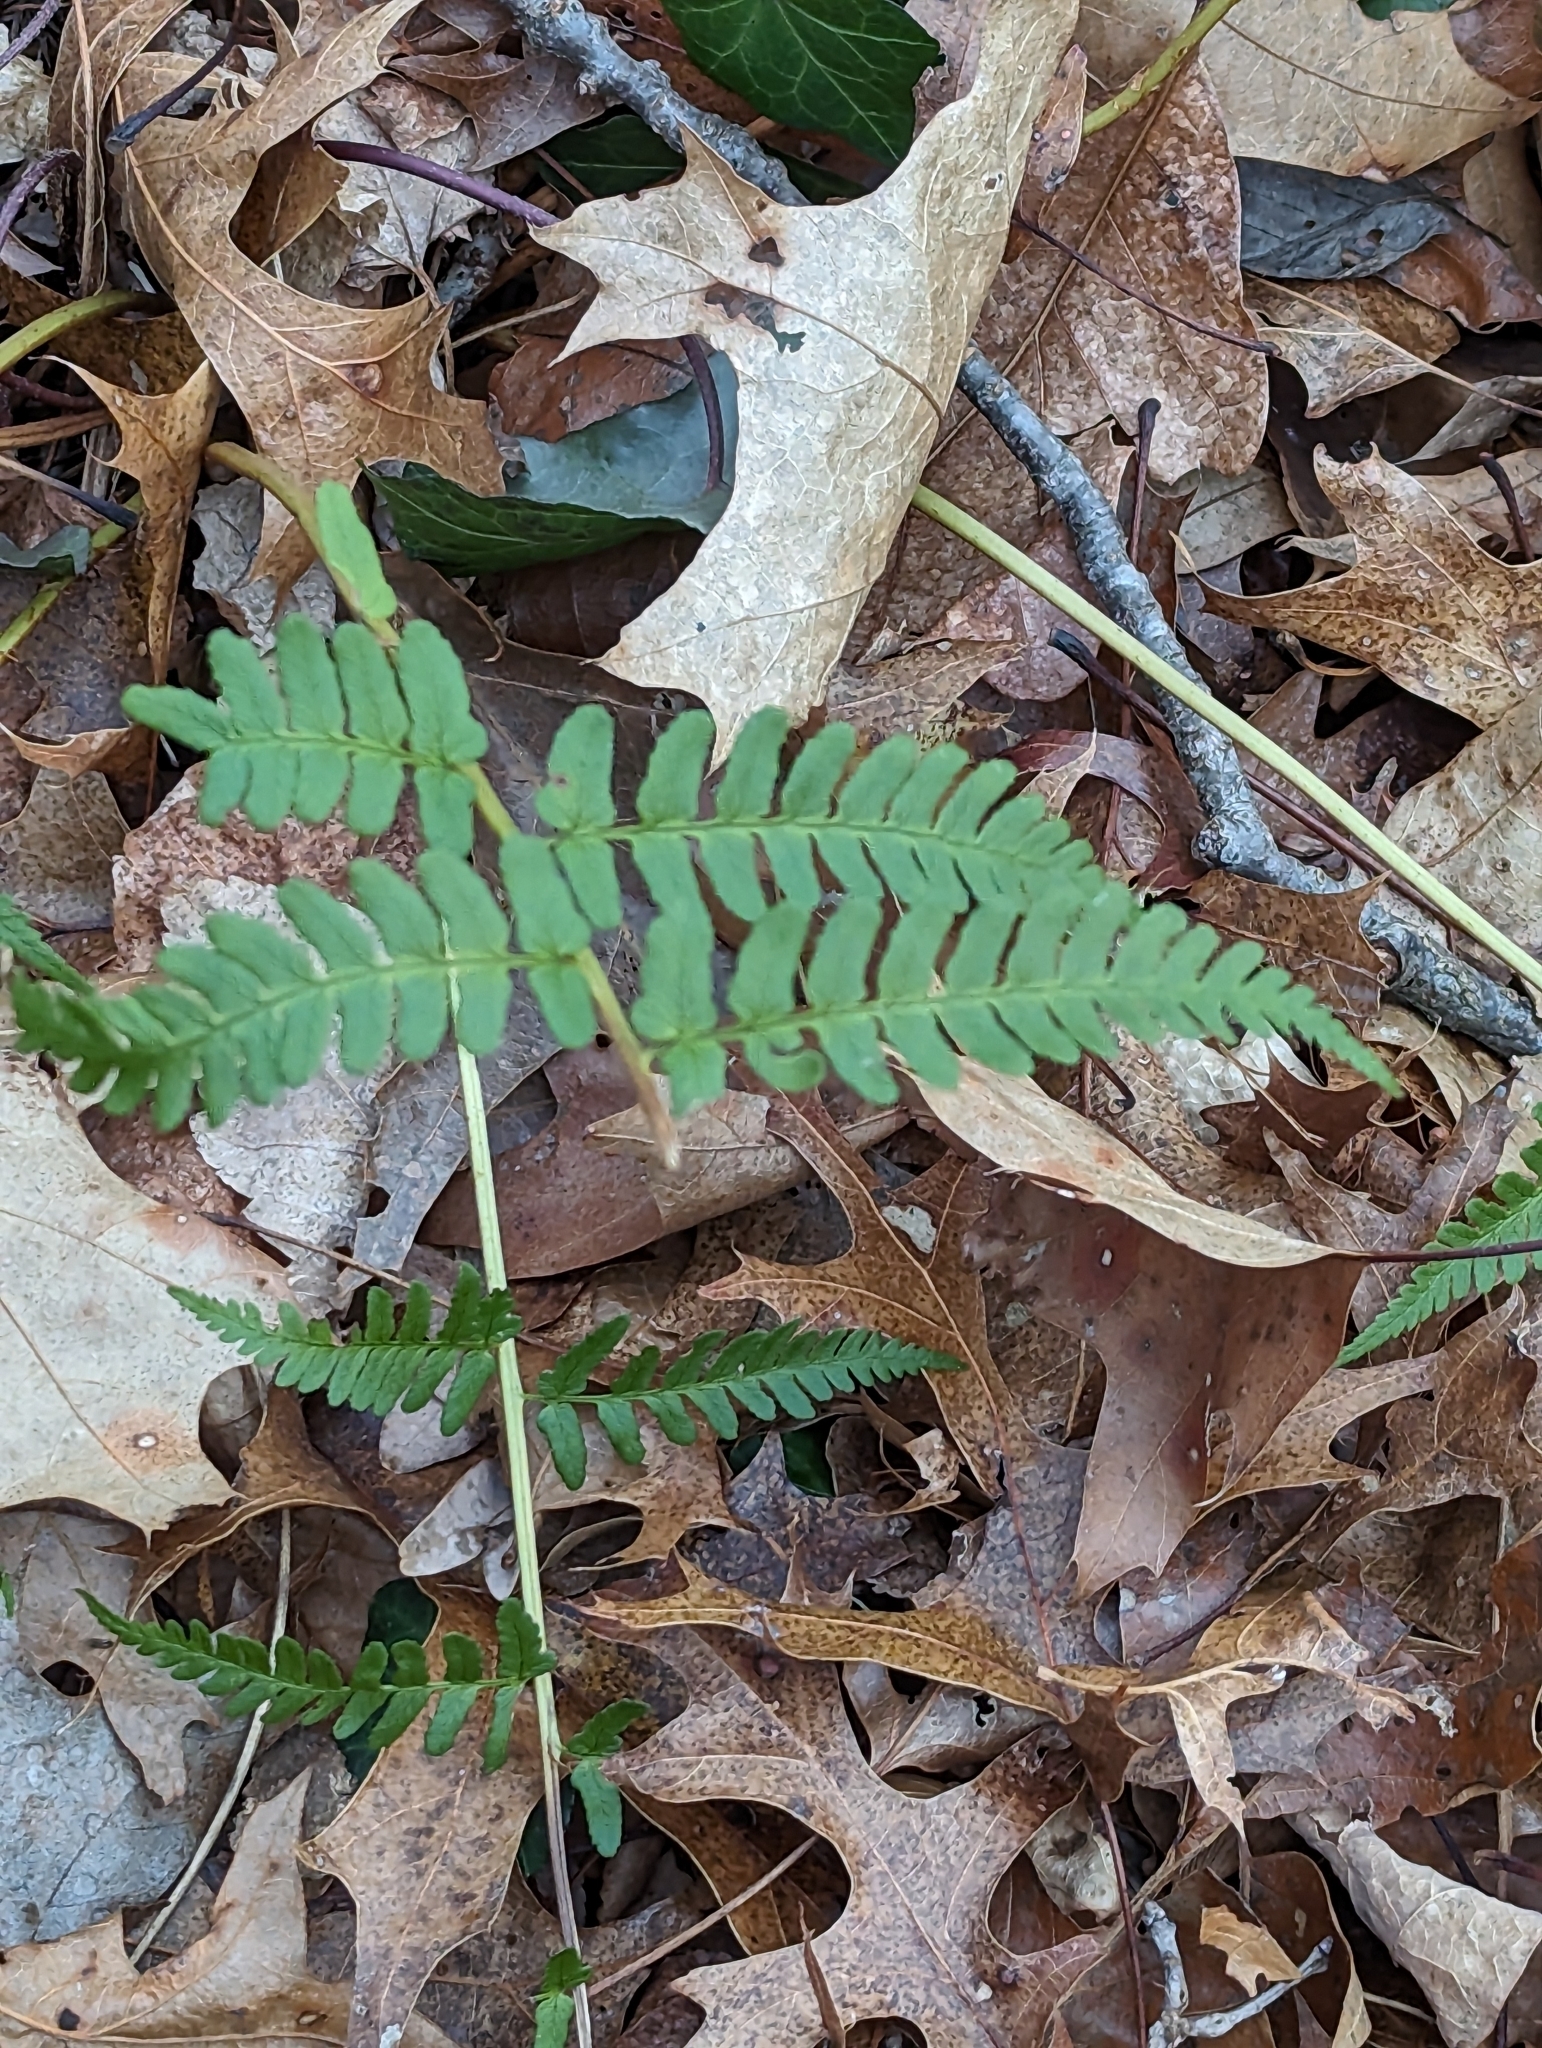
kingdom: Plantae
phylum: Tracheophyta
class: Polypodiopsida
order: Polypodiales
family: Dryopteridaceae
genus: Dryopteris
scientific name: Dryopteris marginalis
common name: Marginal wood fern
